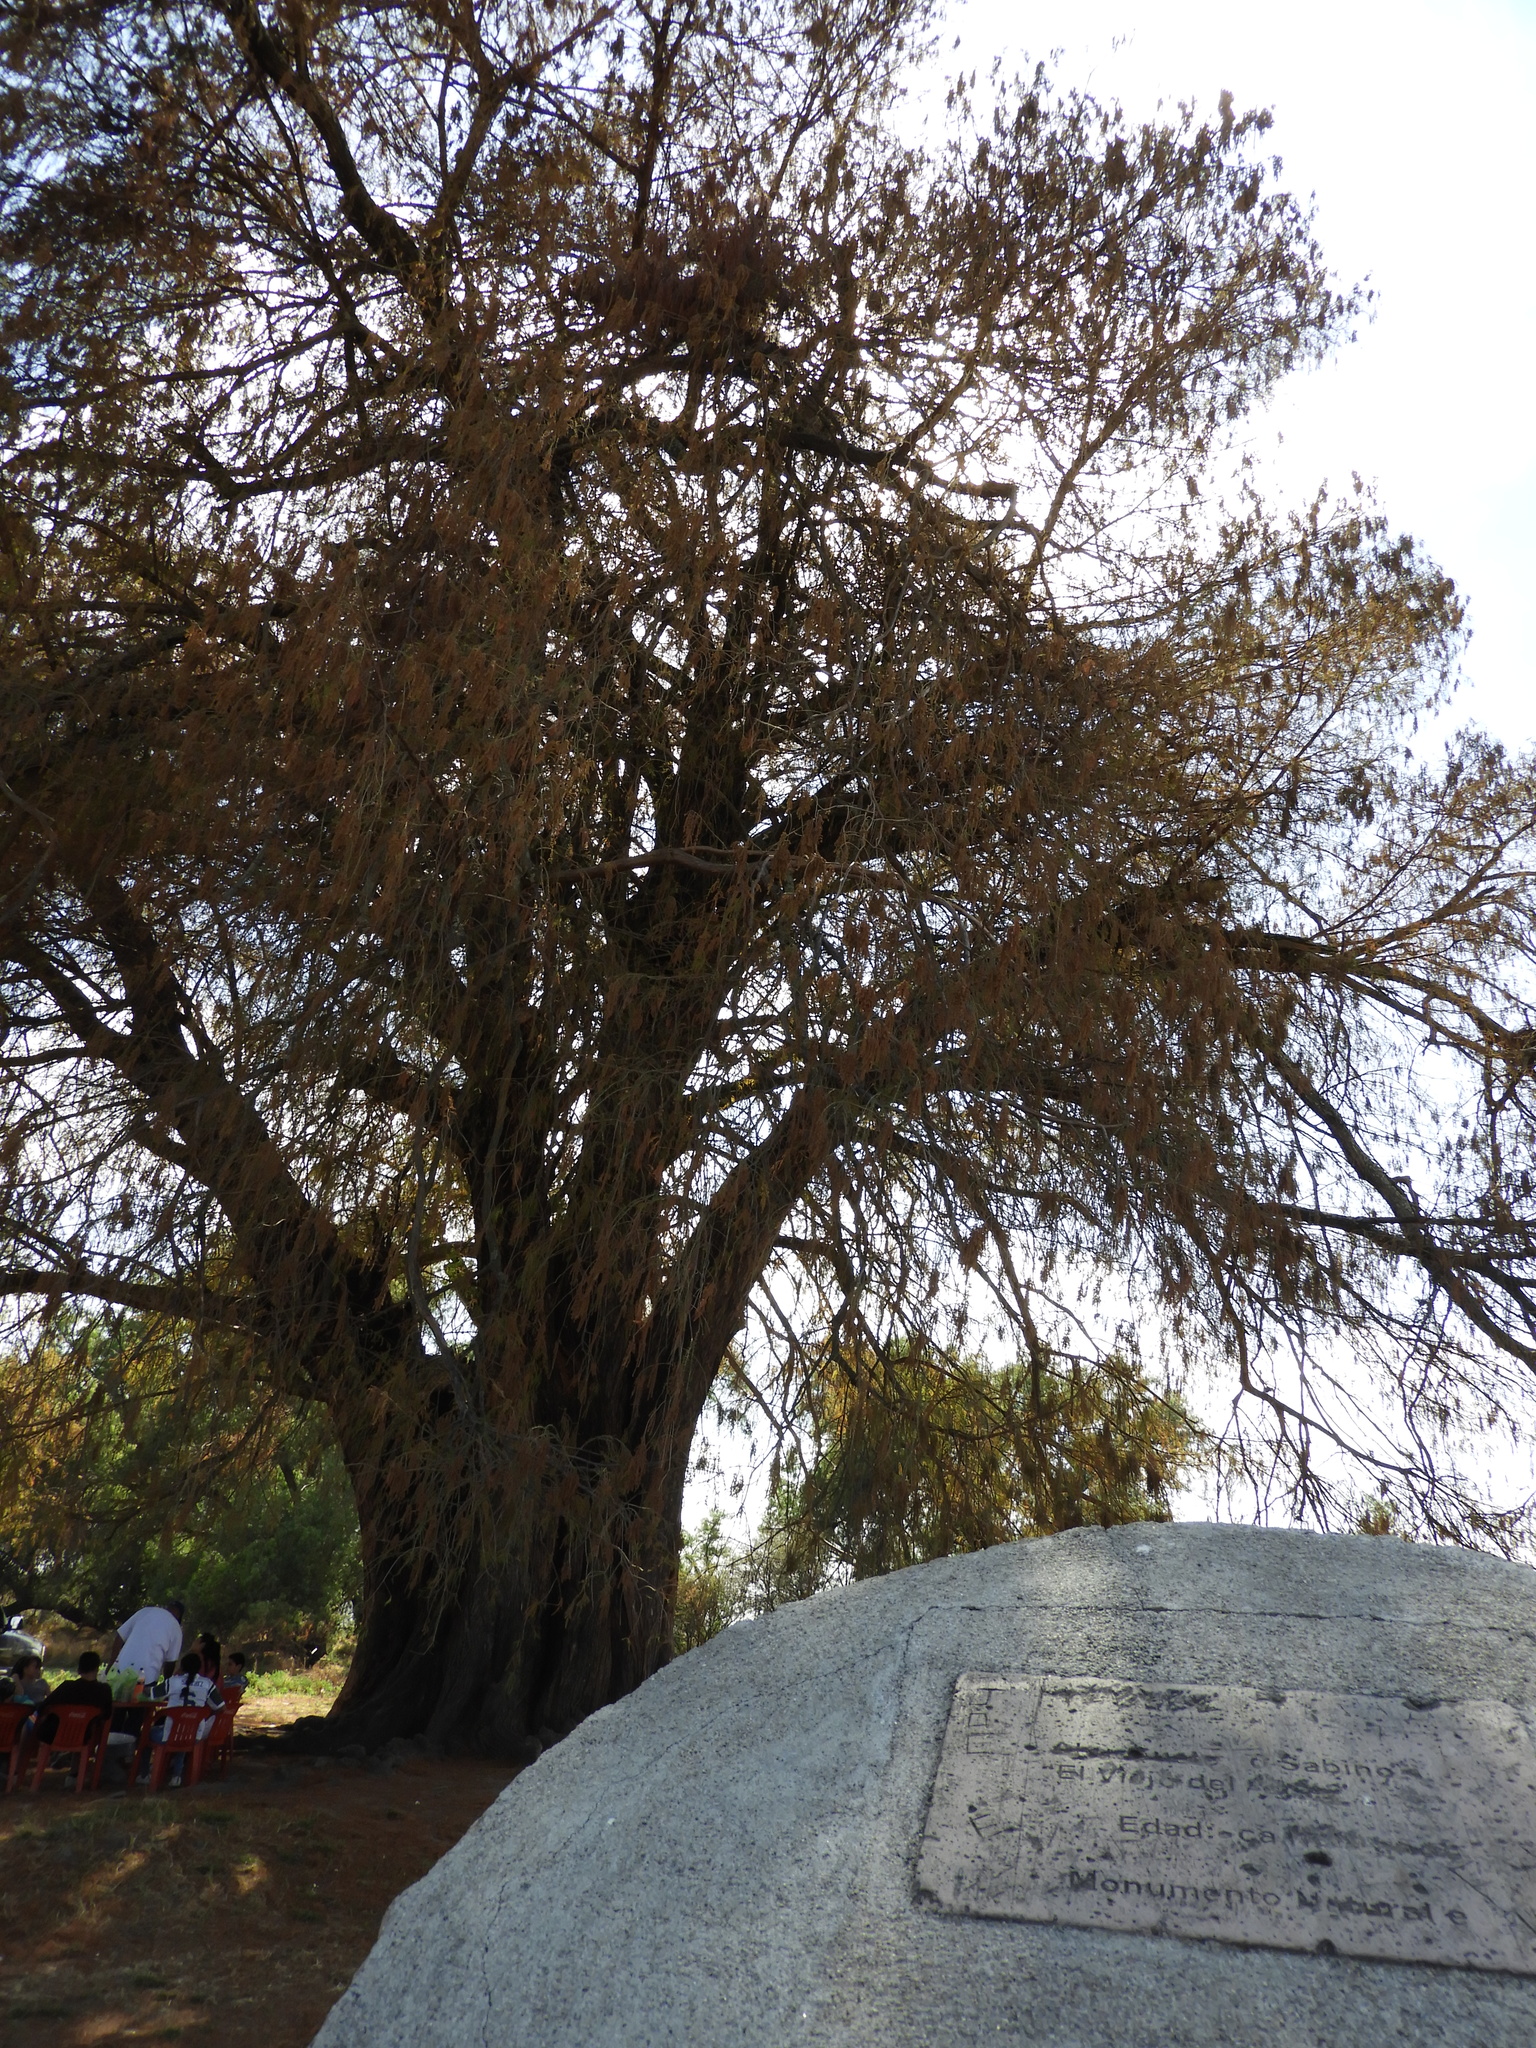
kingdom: Plantae
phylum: Tracheophyta
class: Pinopsida
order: Pinales
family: Cupressaceae
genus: Taxodium
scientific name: Taxodium mucronatum
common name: Montezume bald cypress
